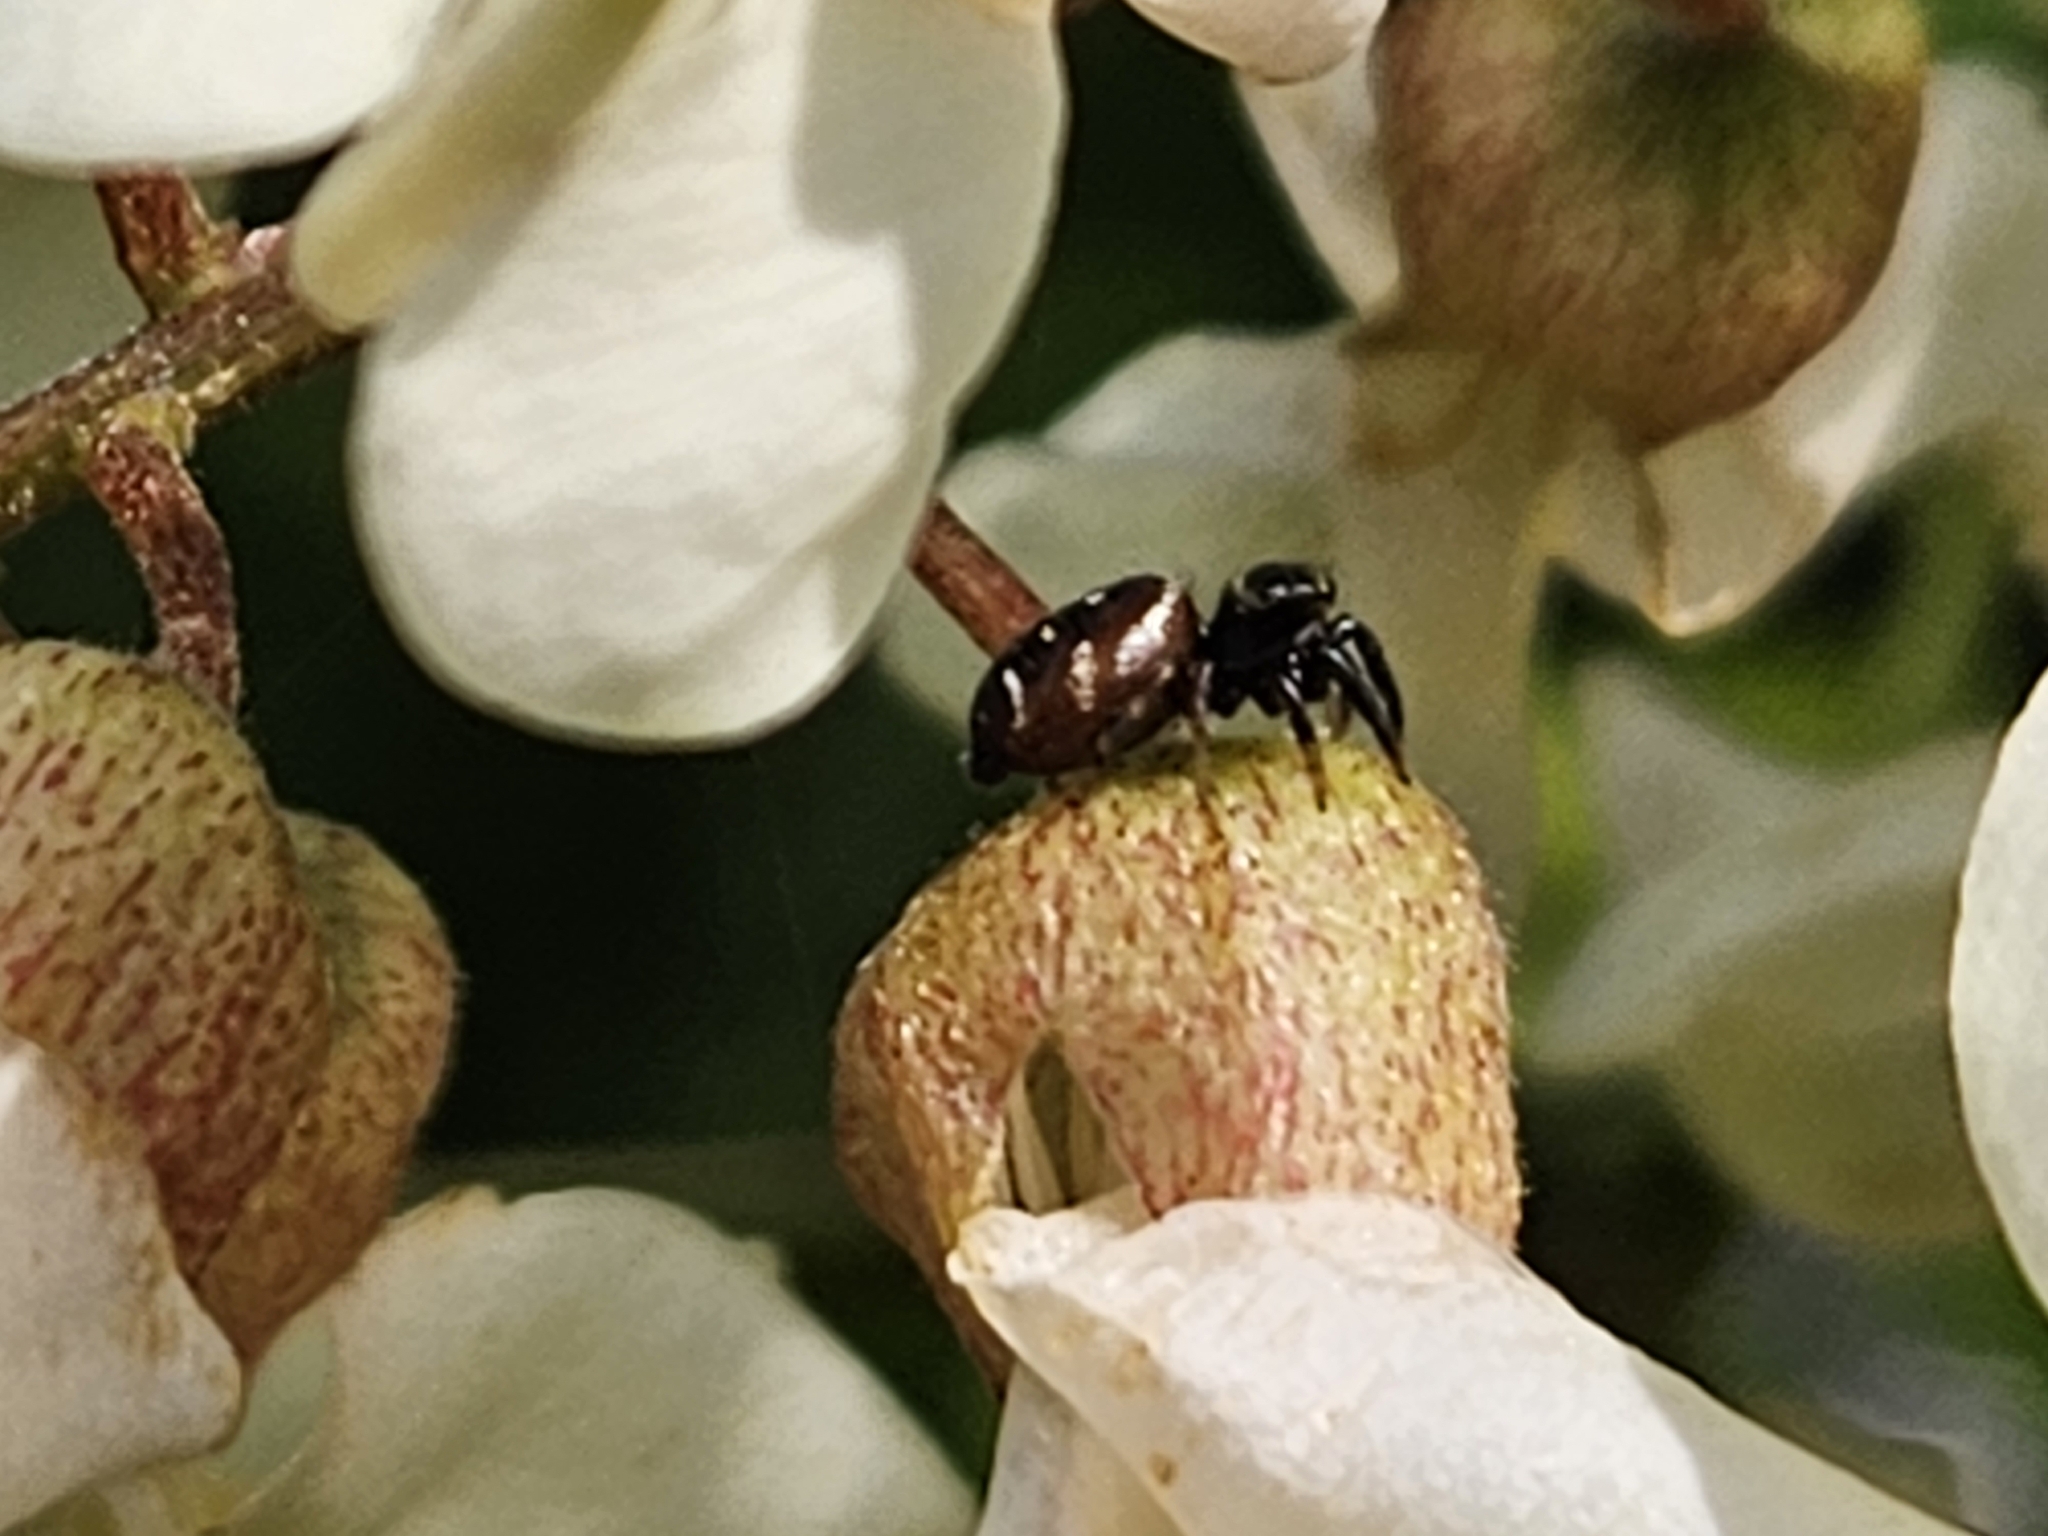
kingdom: Animalia
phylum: Arthropoda
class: Arachnida
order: Araneae
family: Salticidae
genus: Paraphidippus
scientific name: Paraphidippus aurantius
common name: Jumping spiders
